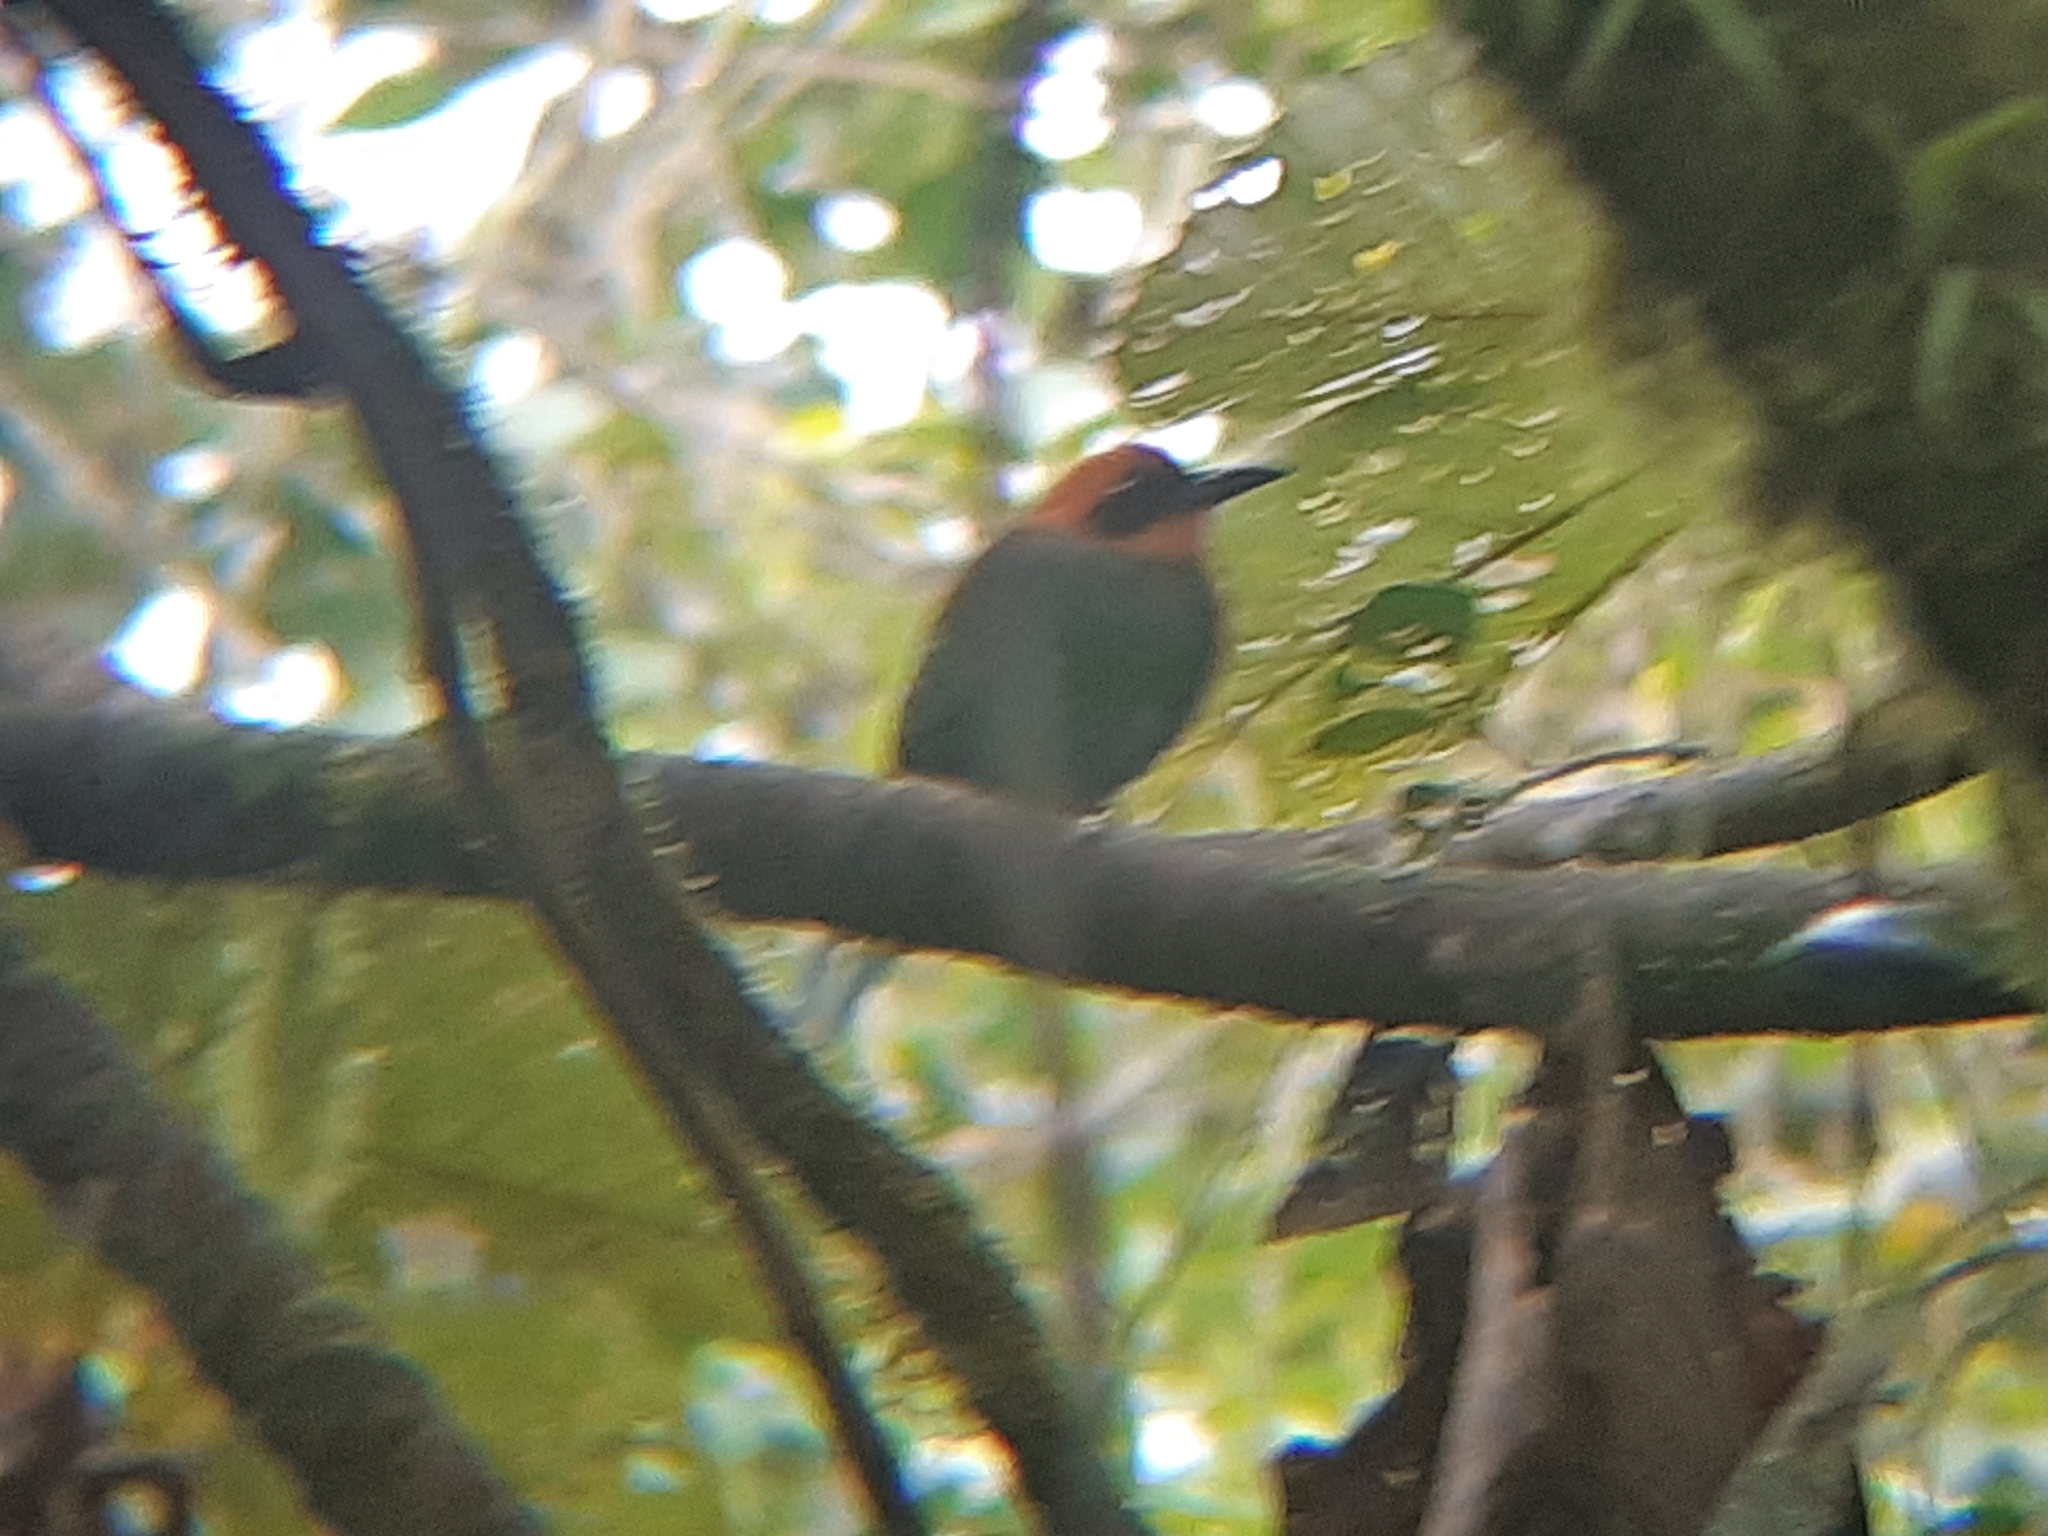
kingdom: Animalia
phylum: Chordata
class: Aves
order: Coraciiformes
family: Momotidae
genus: Baryphthengus
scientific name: Baryphthengus martii
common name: Rufous motmot
